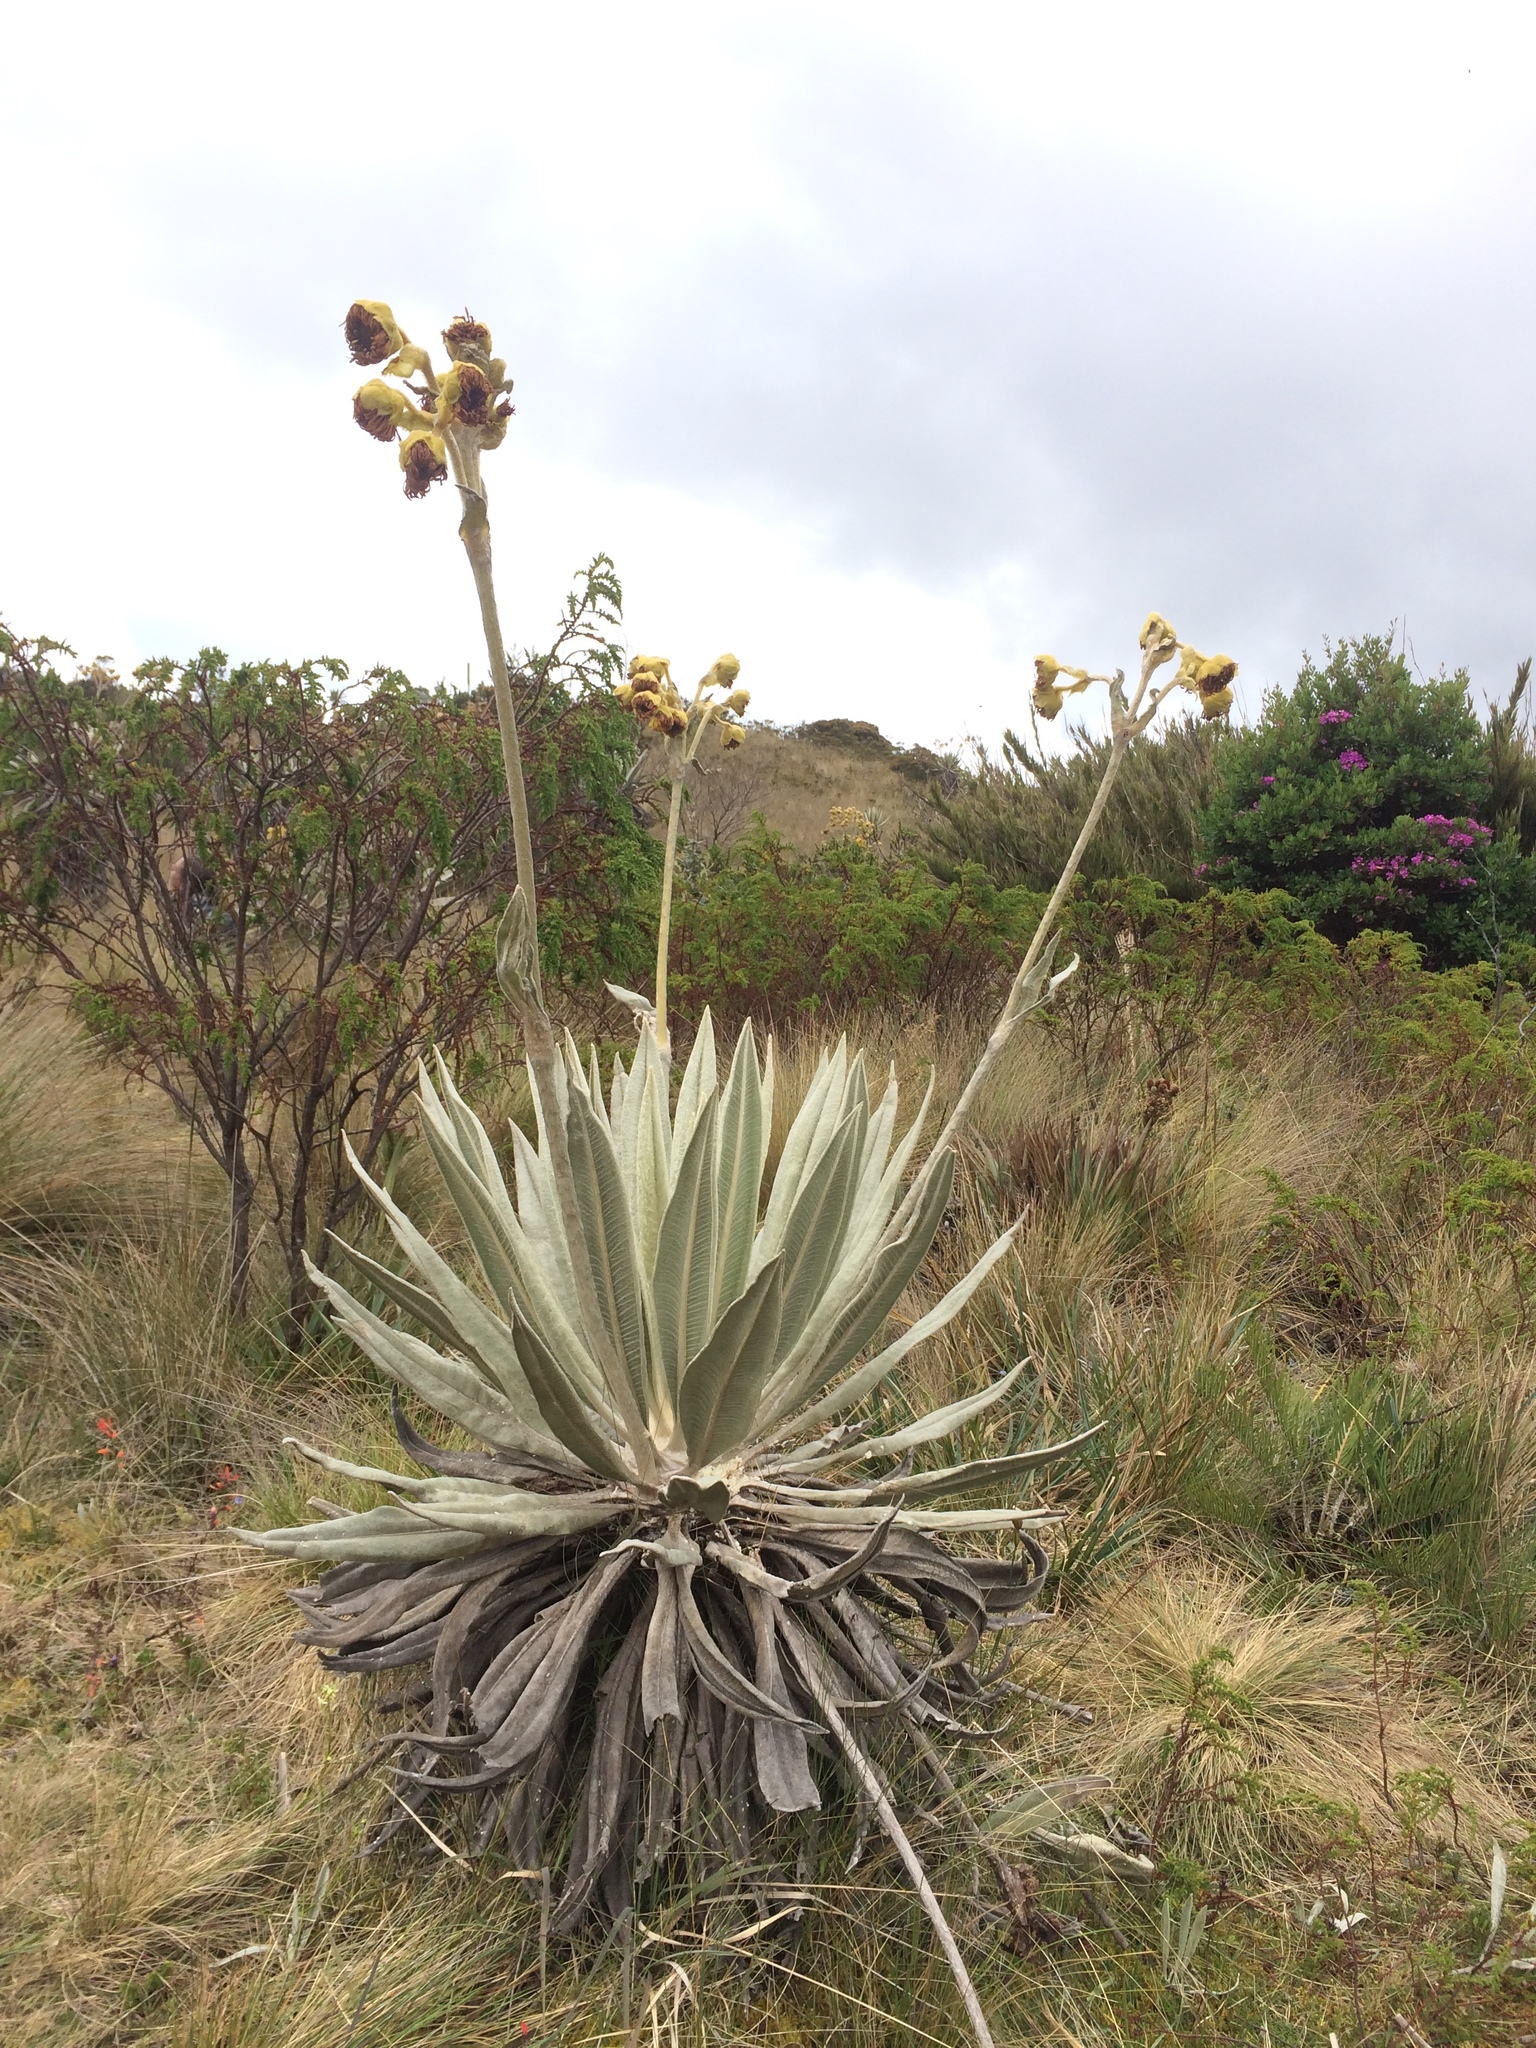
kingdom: Plantae
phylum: Tracheophyta
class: Magnoliopsida
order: Asterales
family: Asteraceae
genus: Espeletia
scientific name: Espeletia grandiflora
